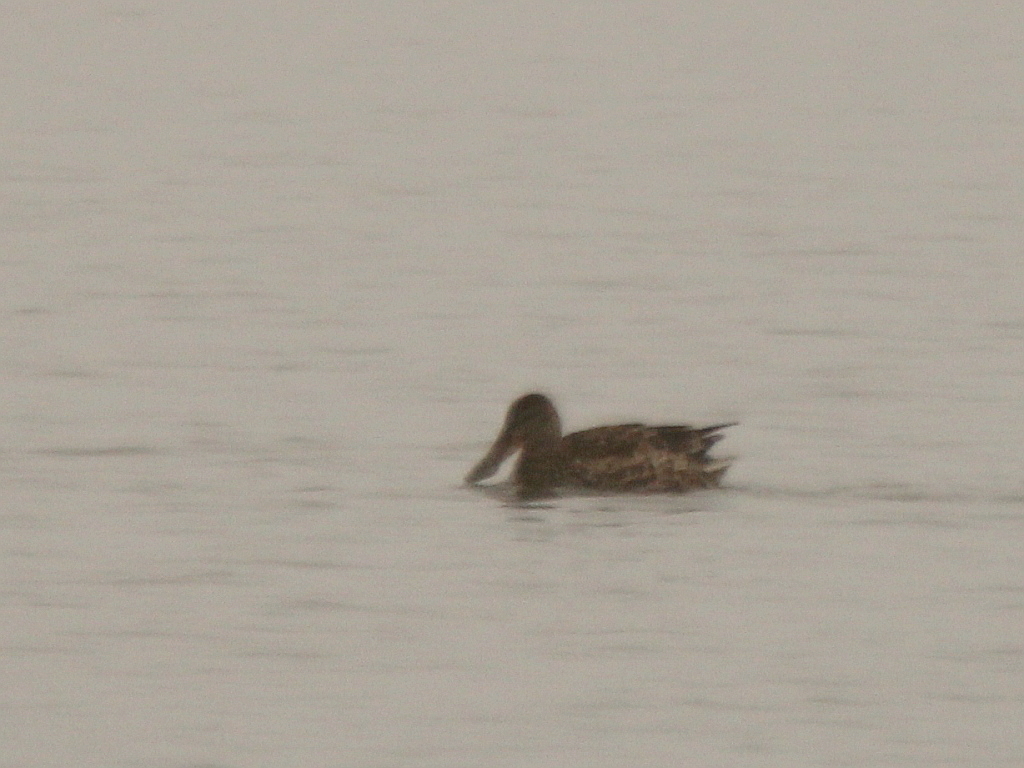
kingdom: Animalia
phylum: Chordata
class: Aves
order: Anseriformes
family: Anatidae
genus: Spatula
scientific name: Spatula clypeata
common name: Northern shoveler
